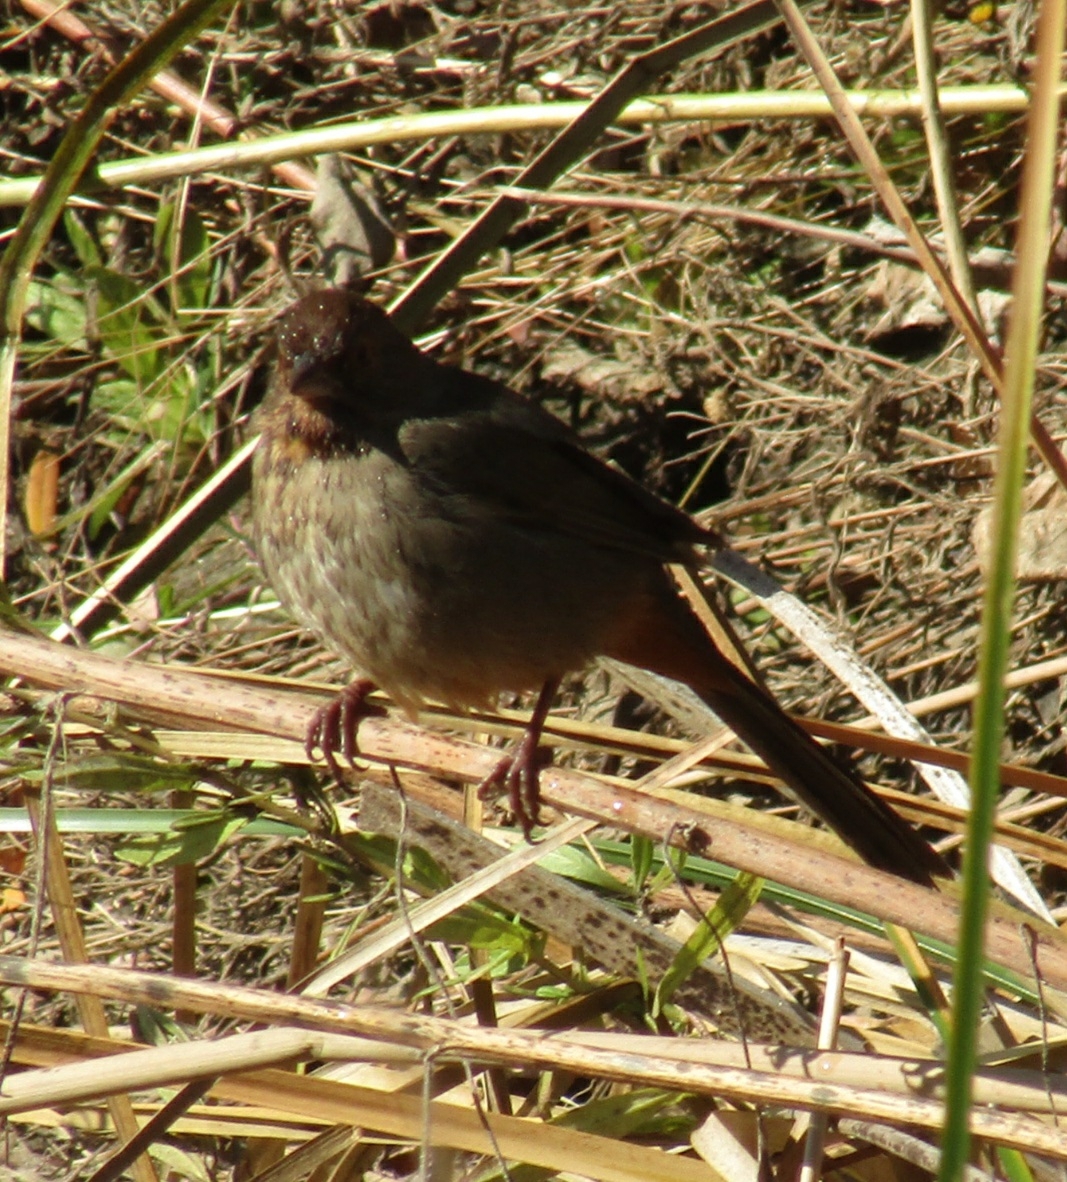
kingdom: Animalia
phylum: Chordata
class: Aves
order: Passeriformes
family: Passerellidae
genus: Melozone
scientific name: Melozone crissalis
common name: California towhee
